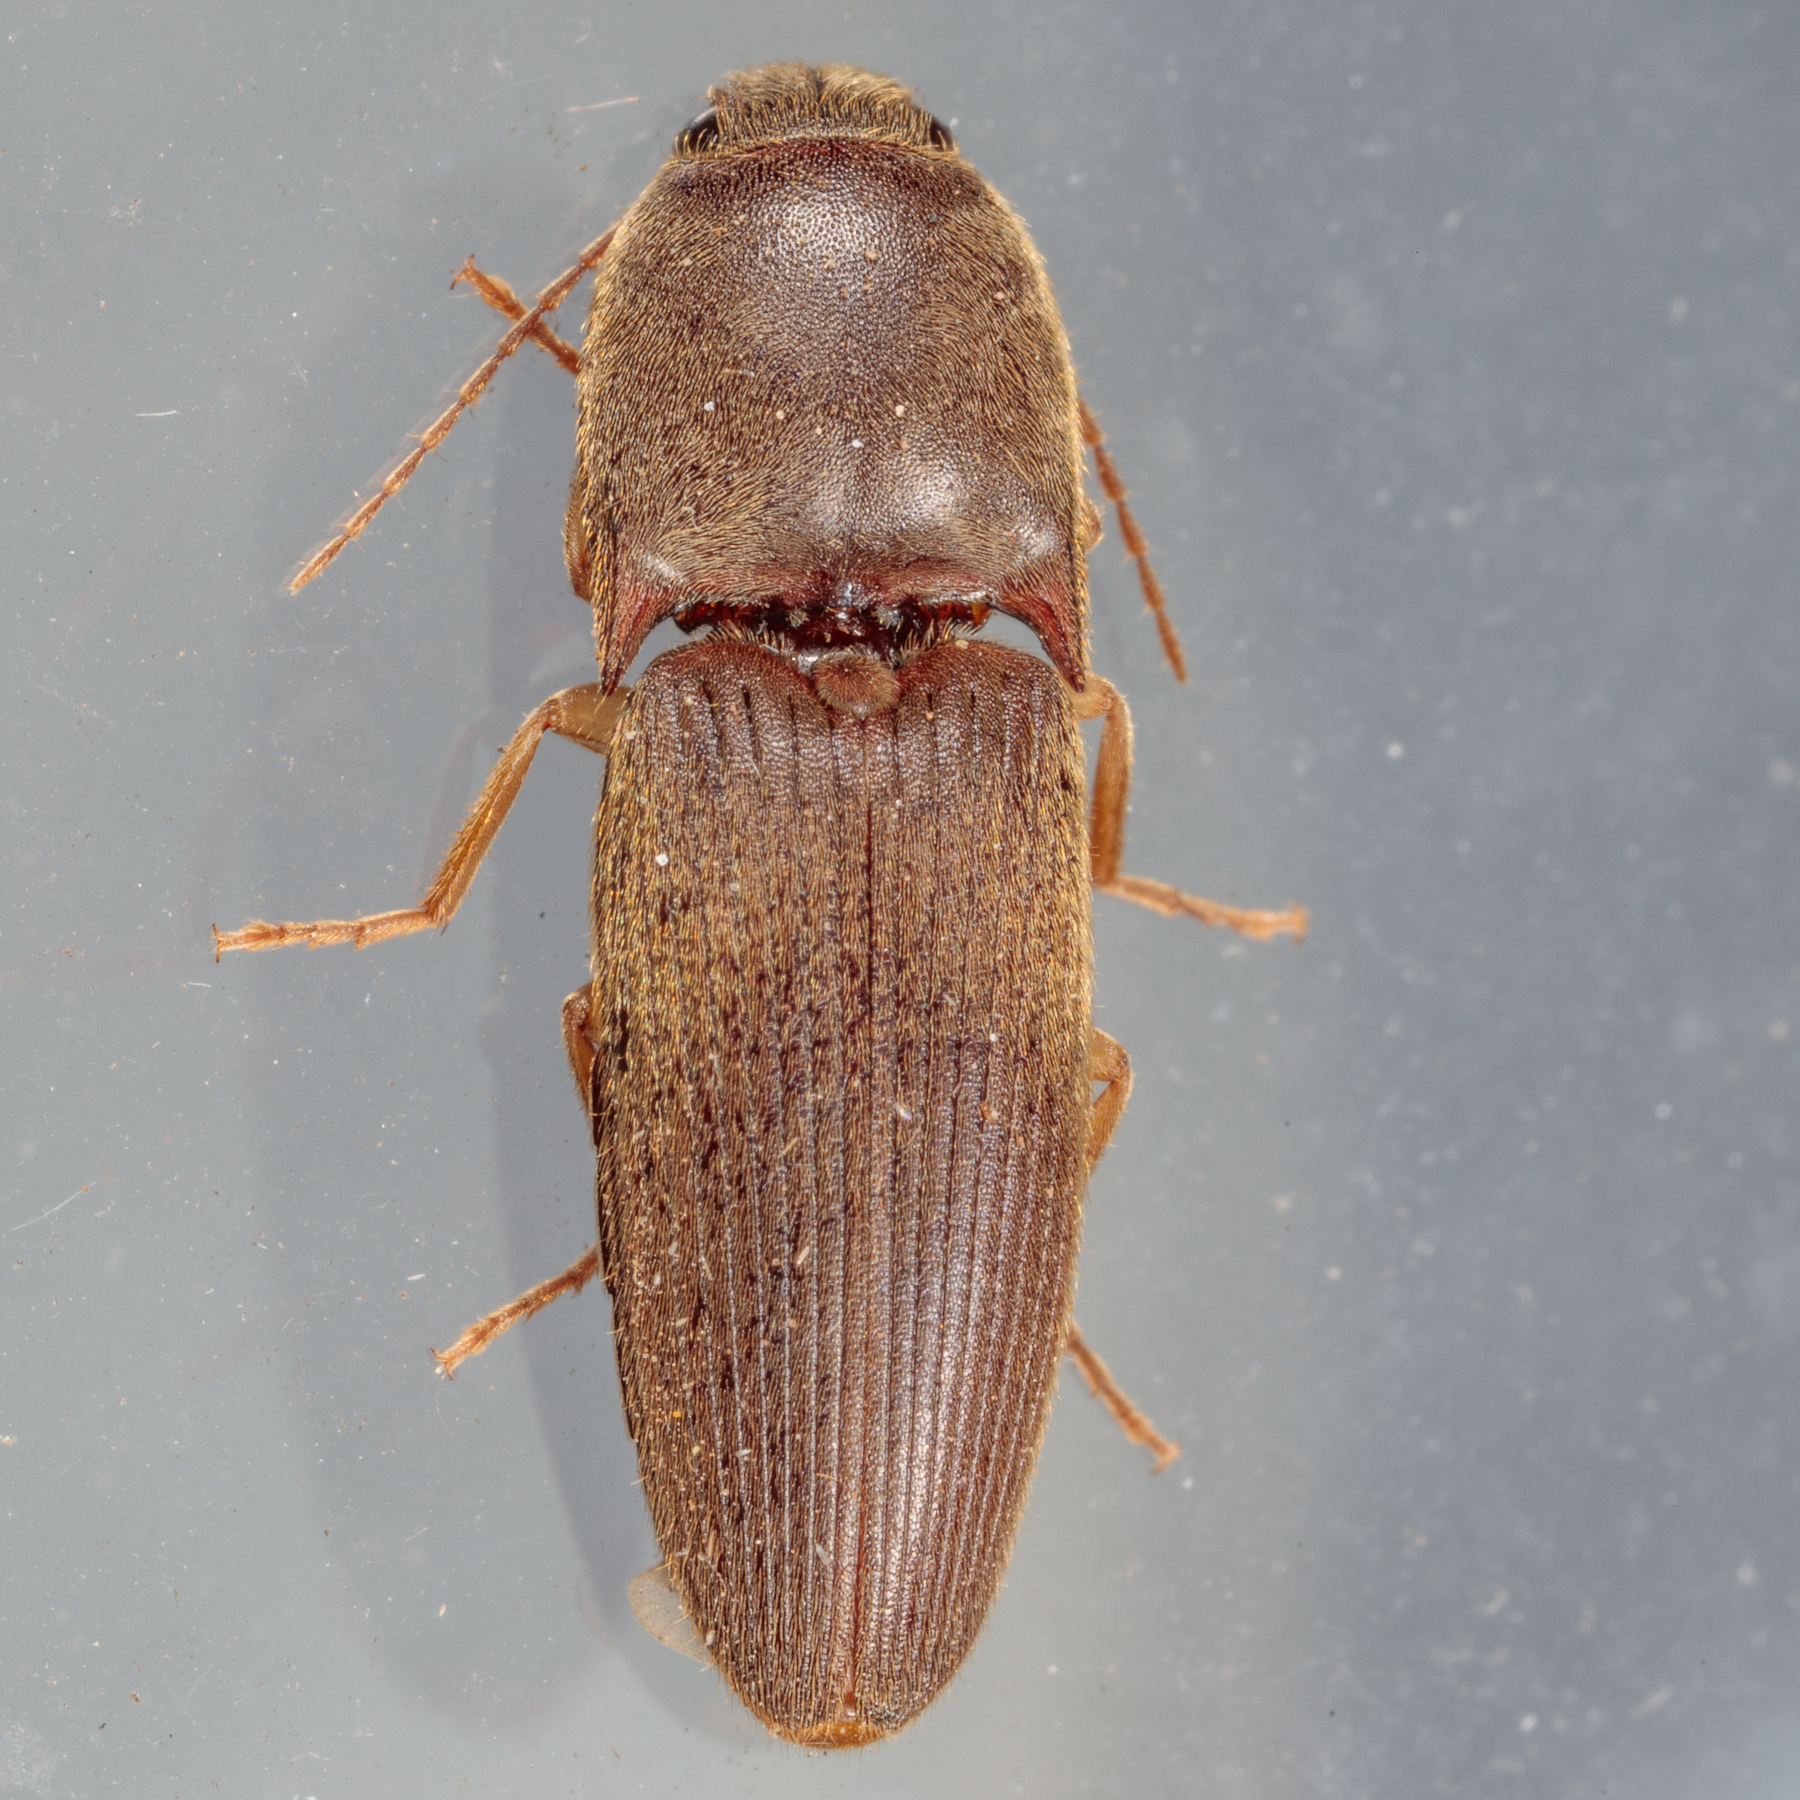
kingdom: Animalia
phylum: Arthropoda
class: Insecta
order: Coleoptera
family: Elateridae
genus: Conoderus
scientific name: Conoderus exsul
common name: Click beetle
